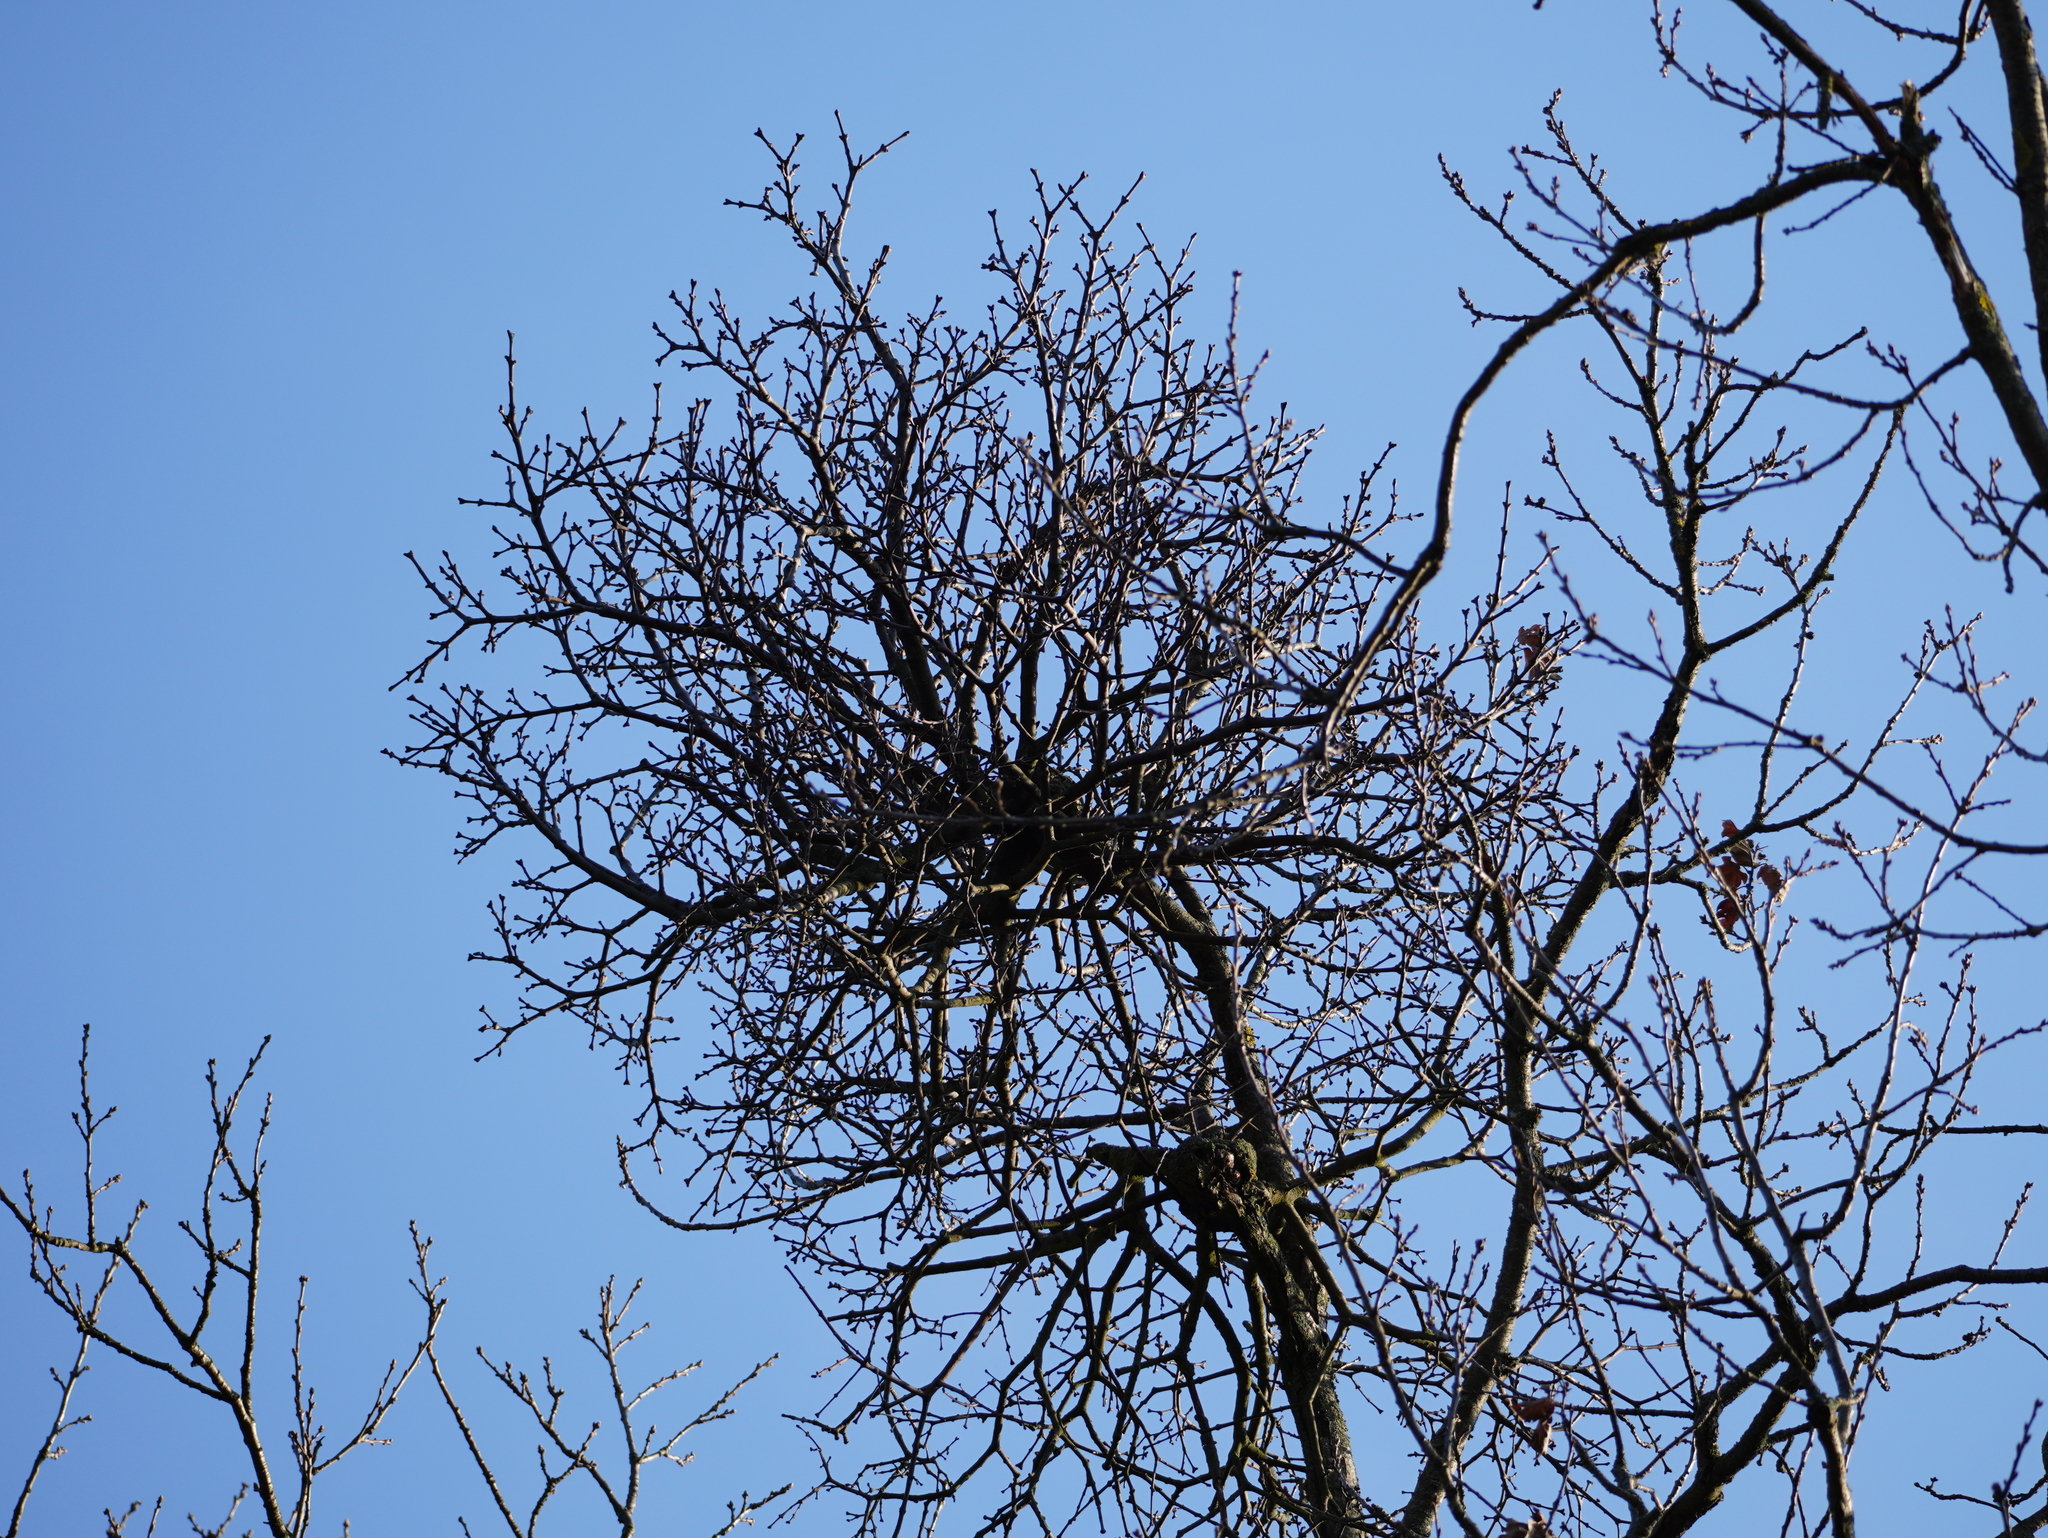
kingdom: Plantae
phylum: Tracheophyta
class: Magnoliopsida
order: Santalales
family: Loranthaceae
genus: Loranthus
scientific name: Loranthus europaeus
